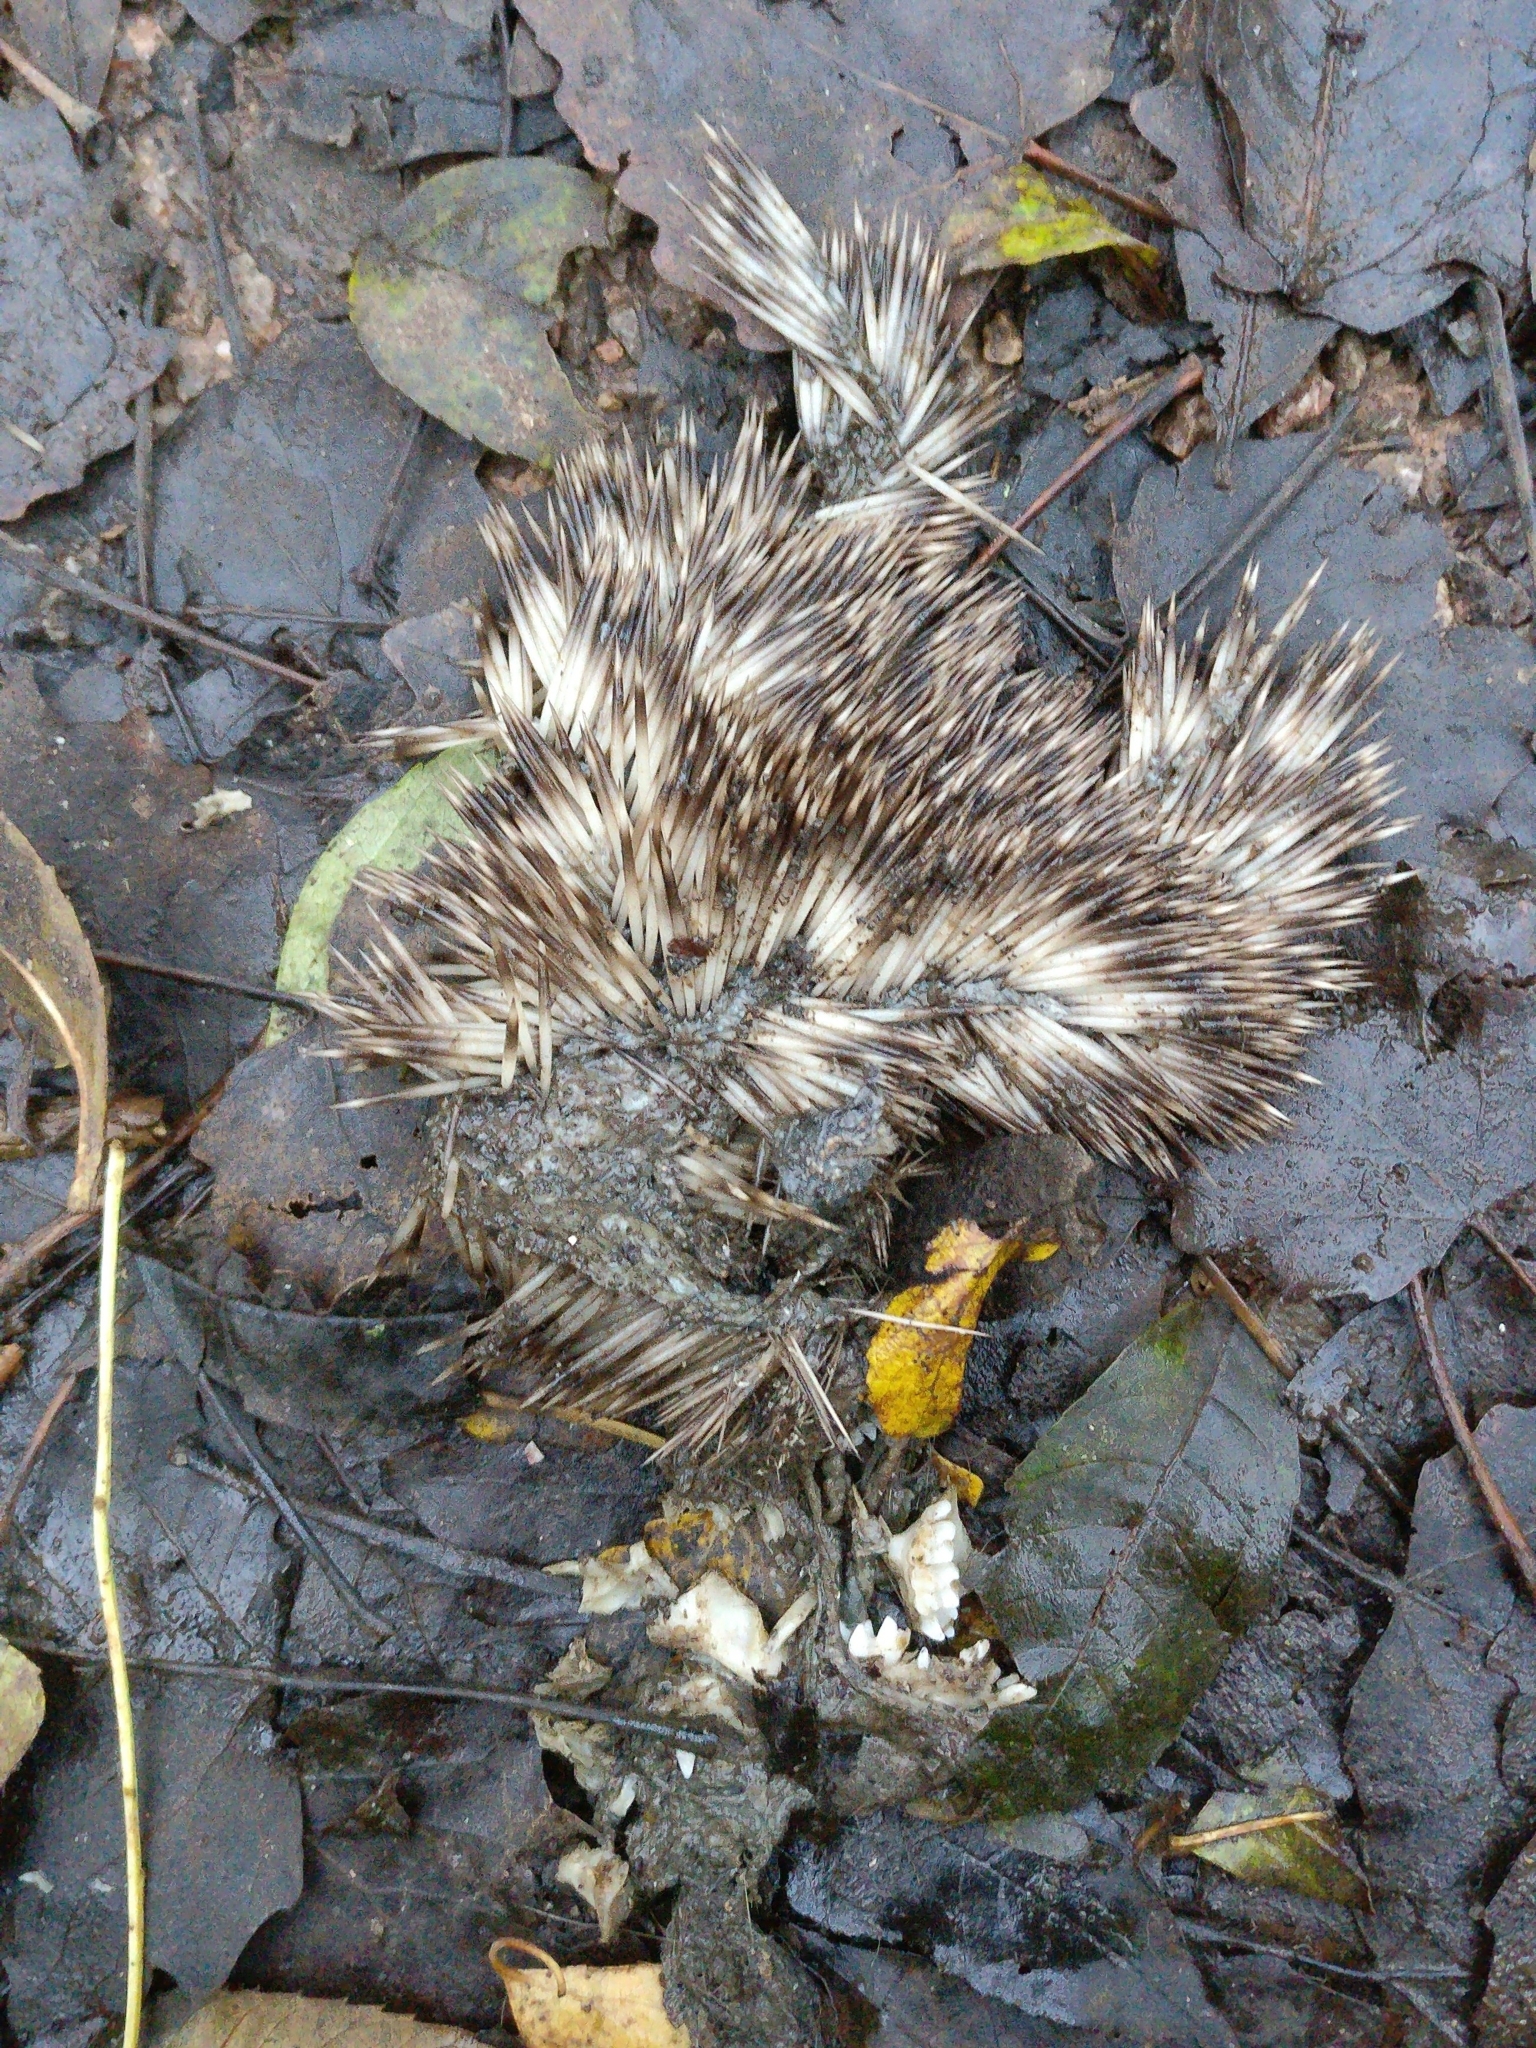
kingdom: Animalia
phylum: Chordata
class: Mammalia
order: Erinaceomorpha
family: Erinaceidae
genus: Erinaceus
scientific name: Erinaceus europaeus
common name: West european hedgehog
